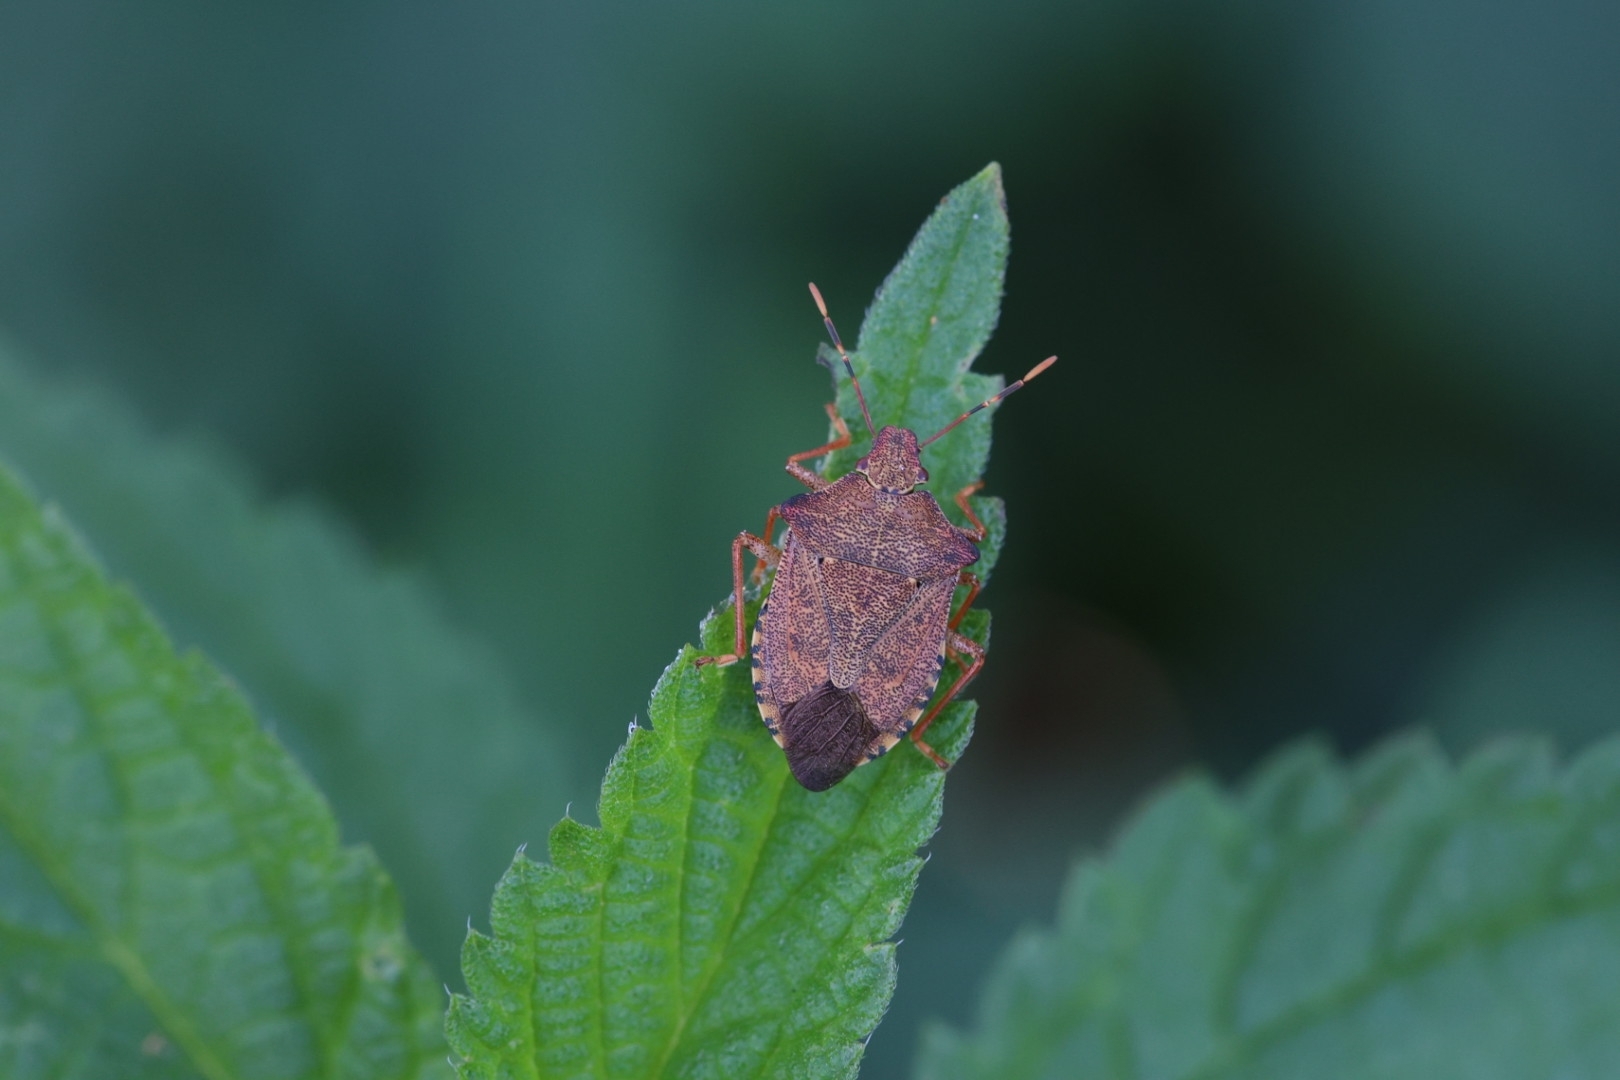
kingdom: Animalia
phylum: Arthropoda
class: Insecta
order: Hemiptera
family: Pentatomidae
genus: Arma
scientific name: Arma custos
